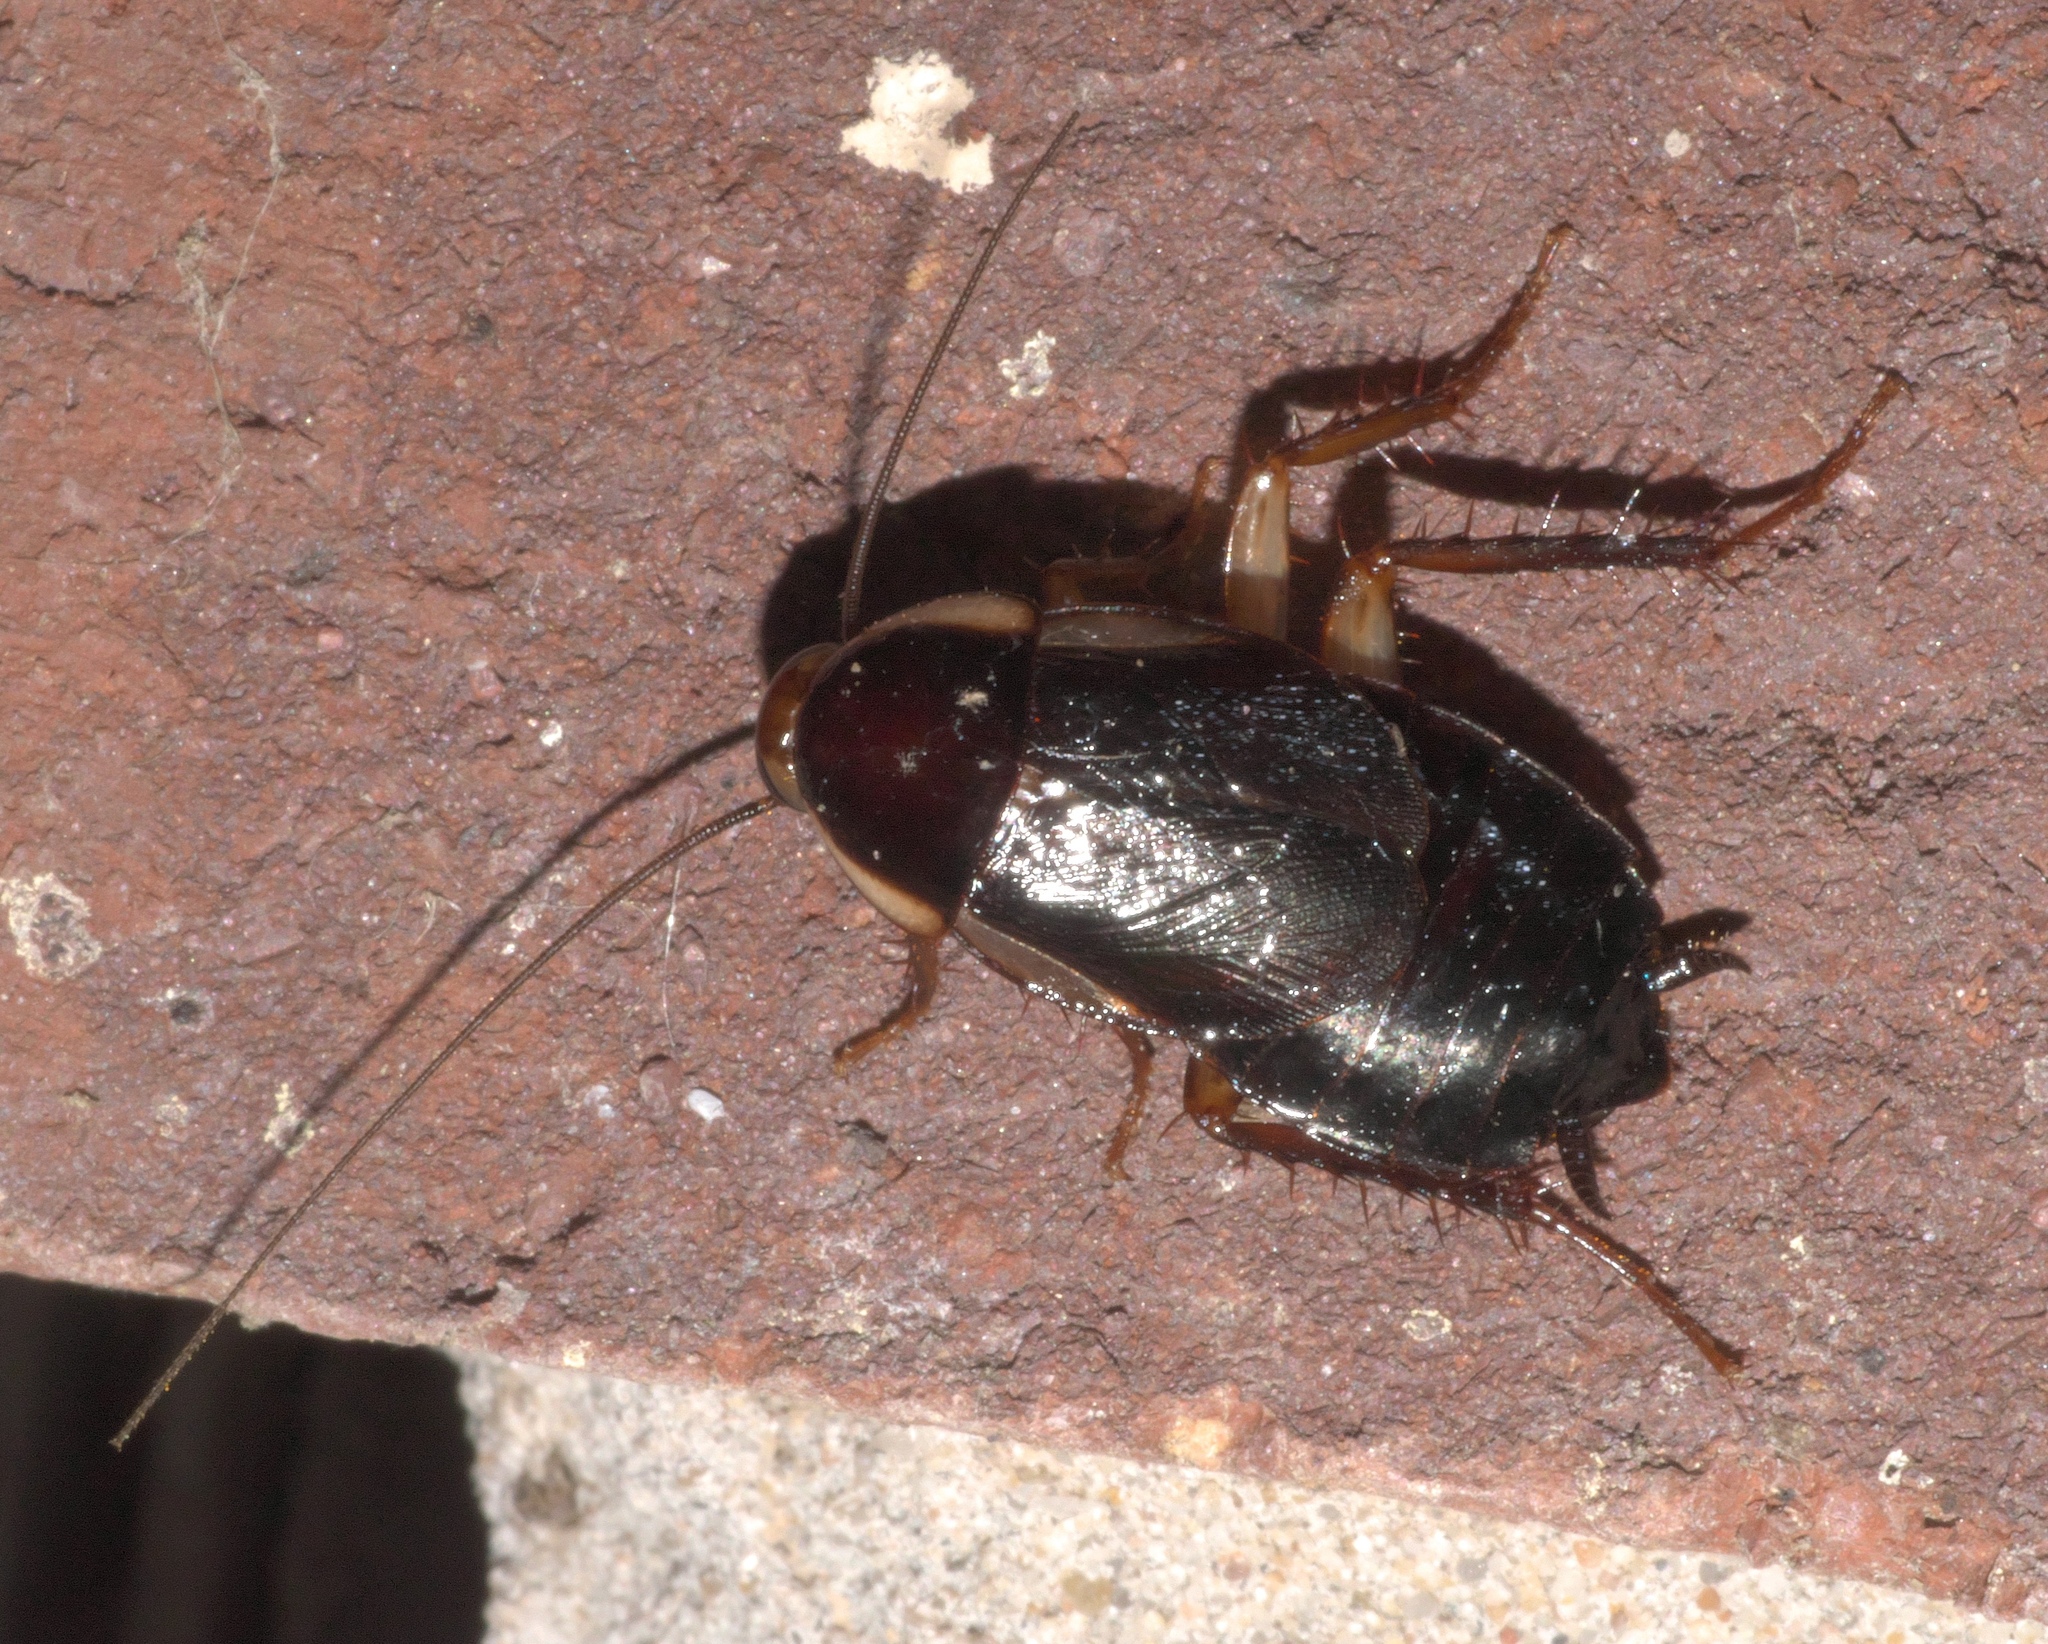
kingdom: Animalia
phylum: Arthropoda
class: Insecta
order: Blattodea
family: Ectobiidae
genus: Parcoblatta
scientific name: Parcoblatta pennsylvanica
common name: Pennsylvanian wood cockroach
